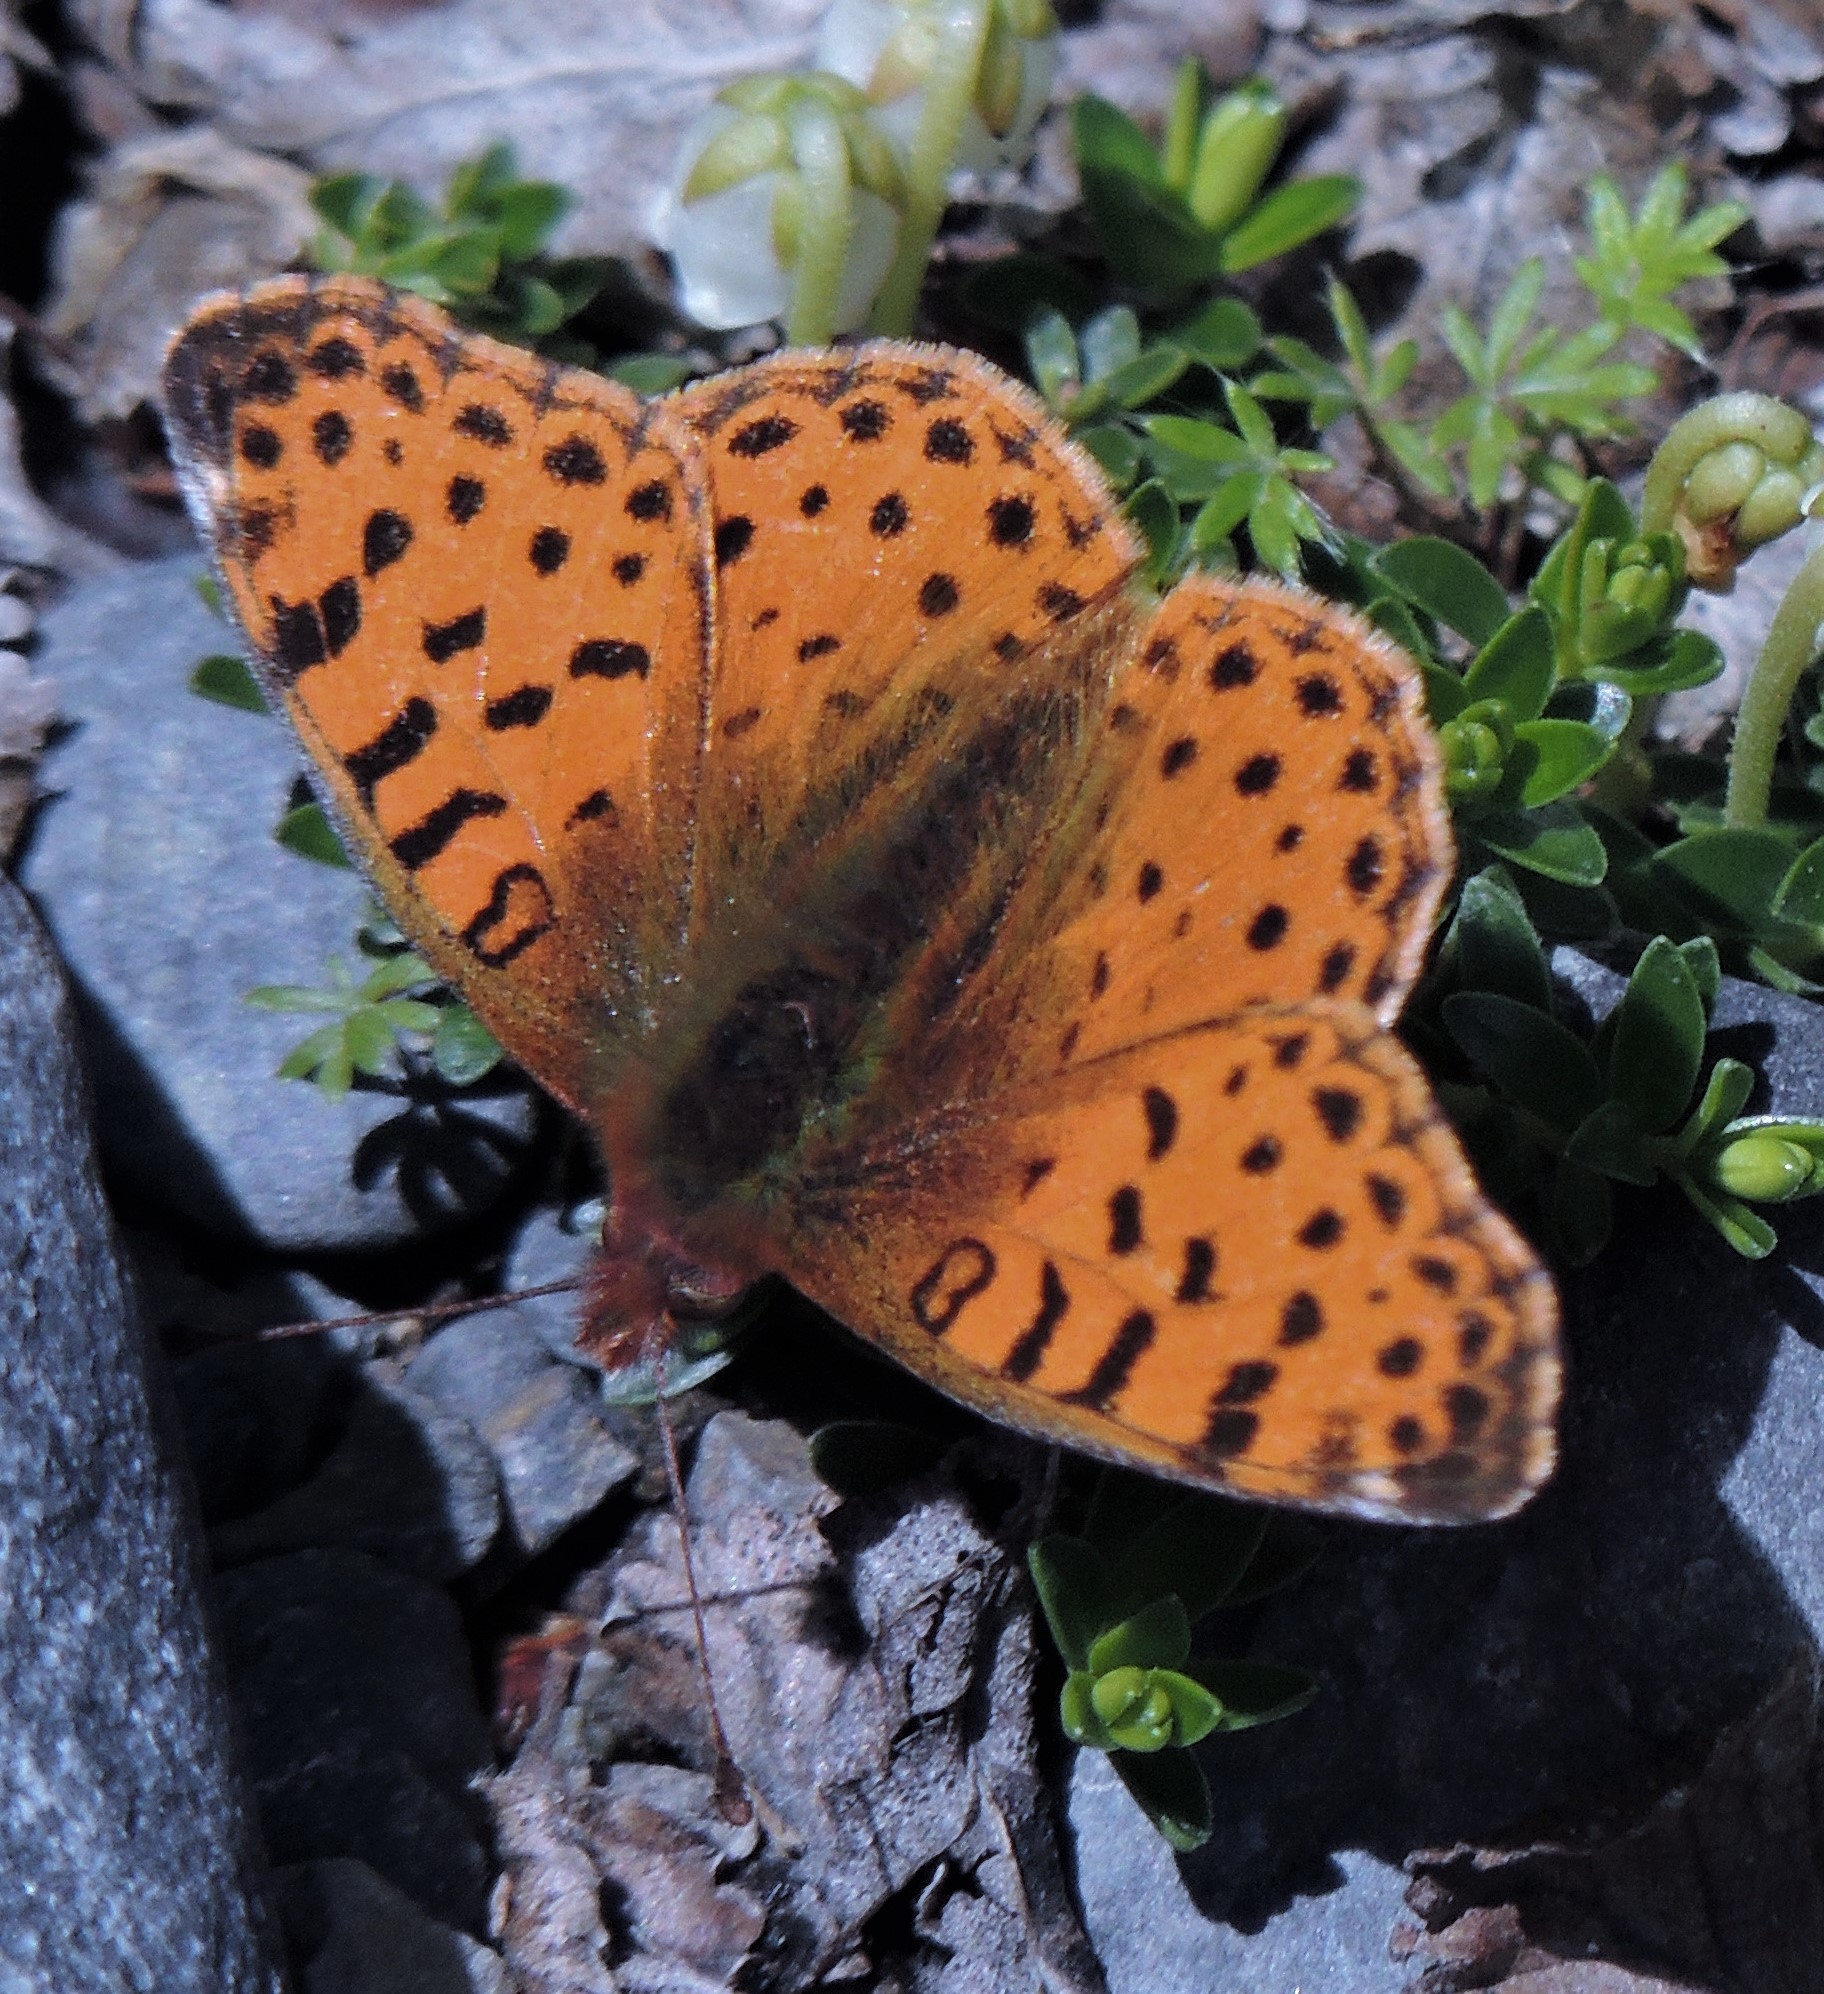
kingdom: Animalia
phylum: Arthropoda
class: Insecta
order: Lepidoptera
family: Nymphalidae
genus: Issoria
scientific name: Issoria Yramea cytheris
